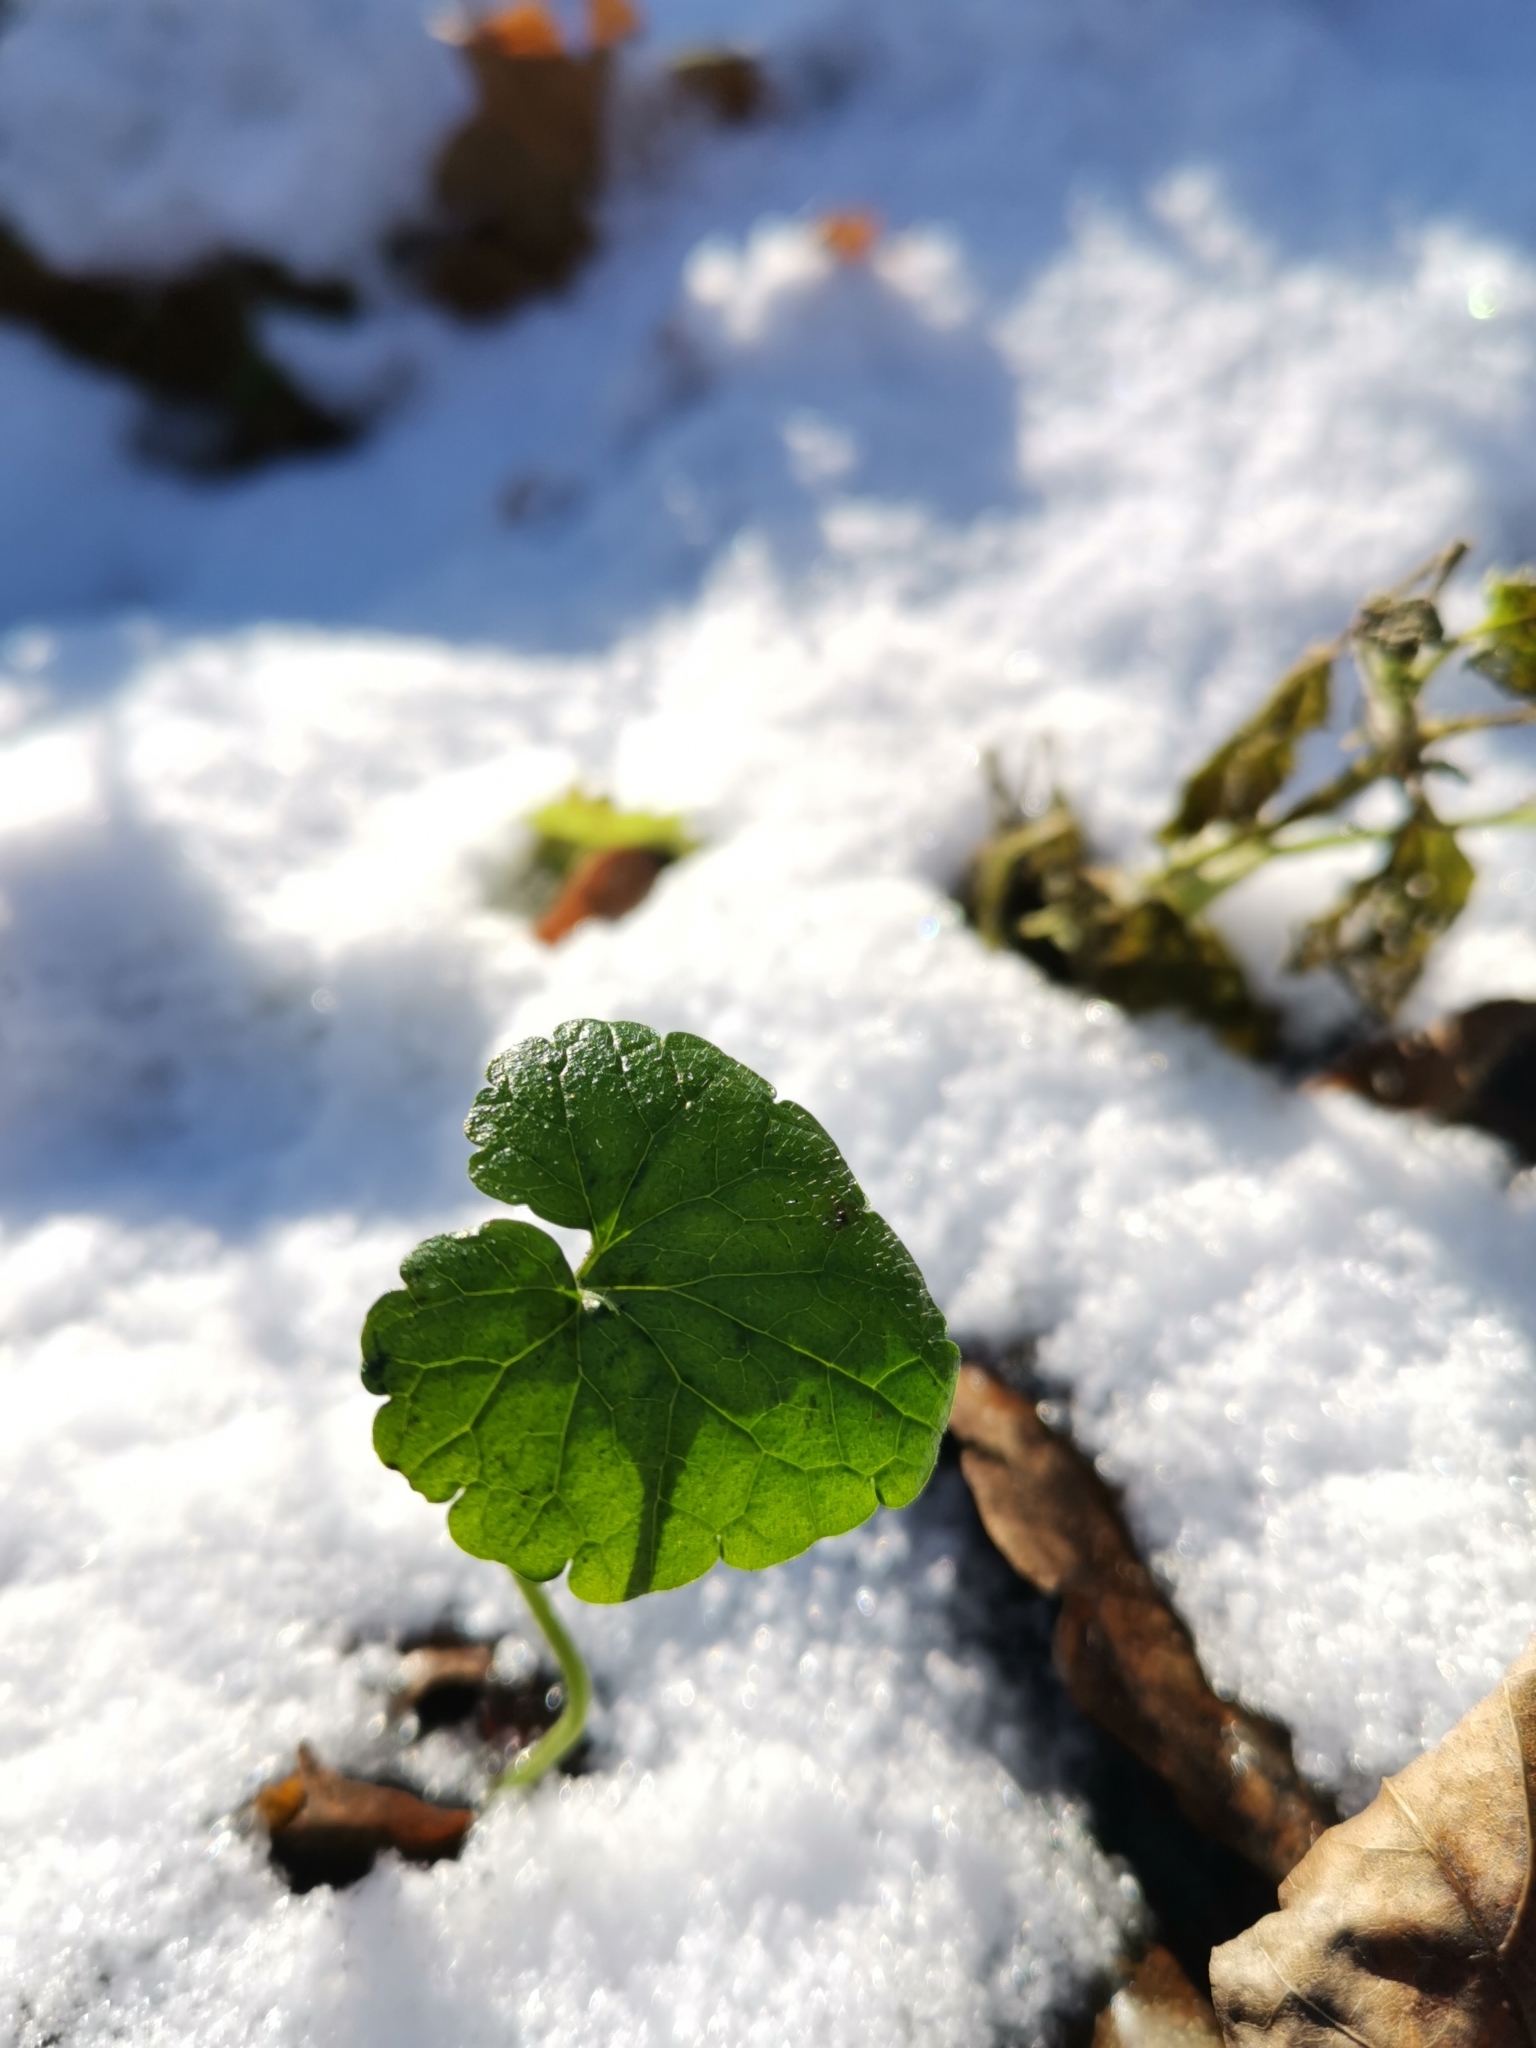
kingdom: Plantae
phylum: Tracheophyta
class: Magnoliopsida
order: Lamiales
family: Lamiaceae
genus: Glechoma
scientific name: Glechoma hederacea
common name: Ground ivy
